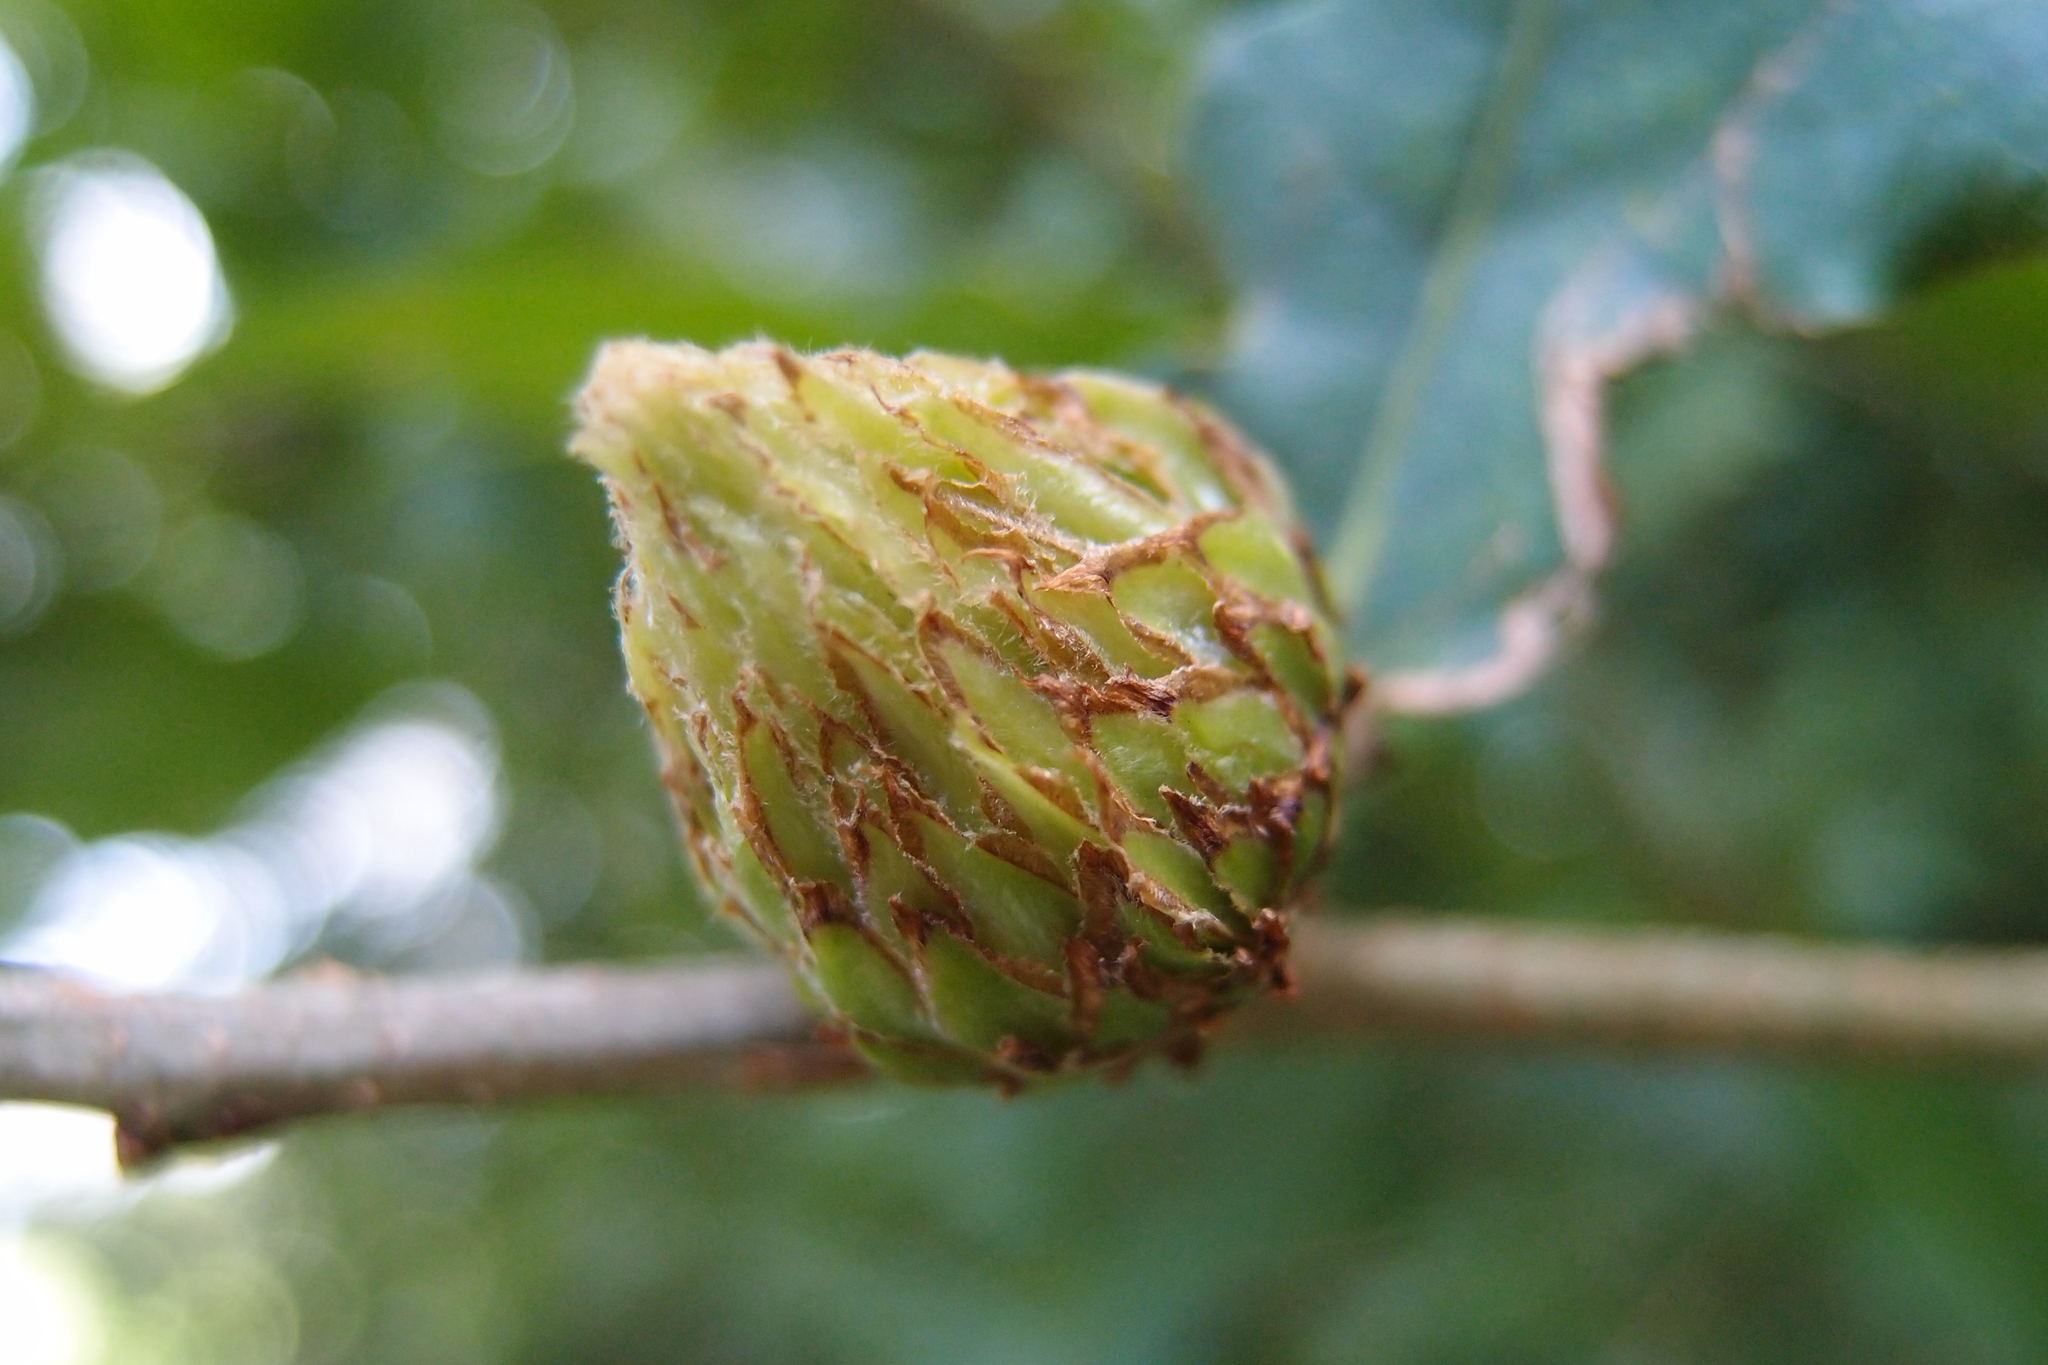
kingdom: Animalia
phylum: Arthropoda
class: Insecta
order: Hymenoptera
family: Cynipidae
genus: Andricus
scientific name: Andricus foecundatrix
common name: Artichoke gall
